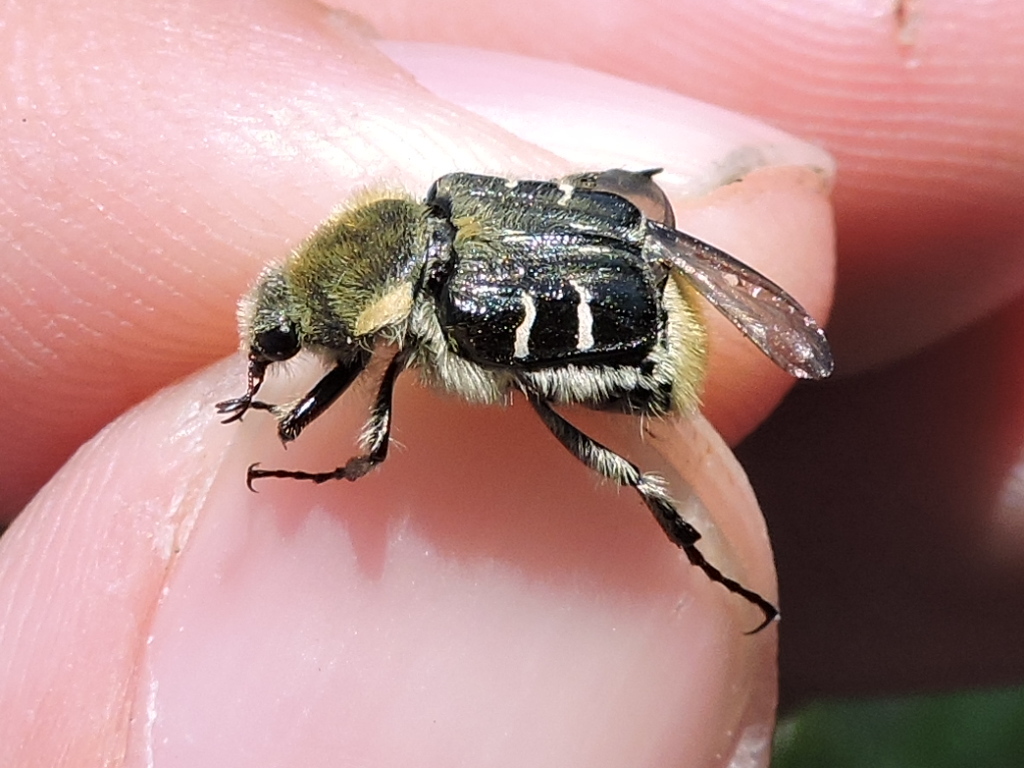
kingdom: Animalia
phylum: Arthropoda
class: Insecta
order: Coleoptera
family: Scarabaeidae
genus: Trichiotinus
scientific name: Trichiotinus texanus
